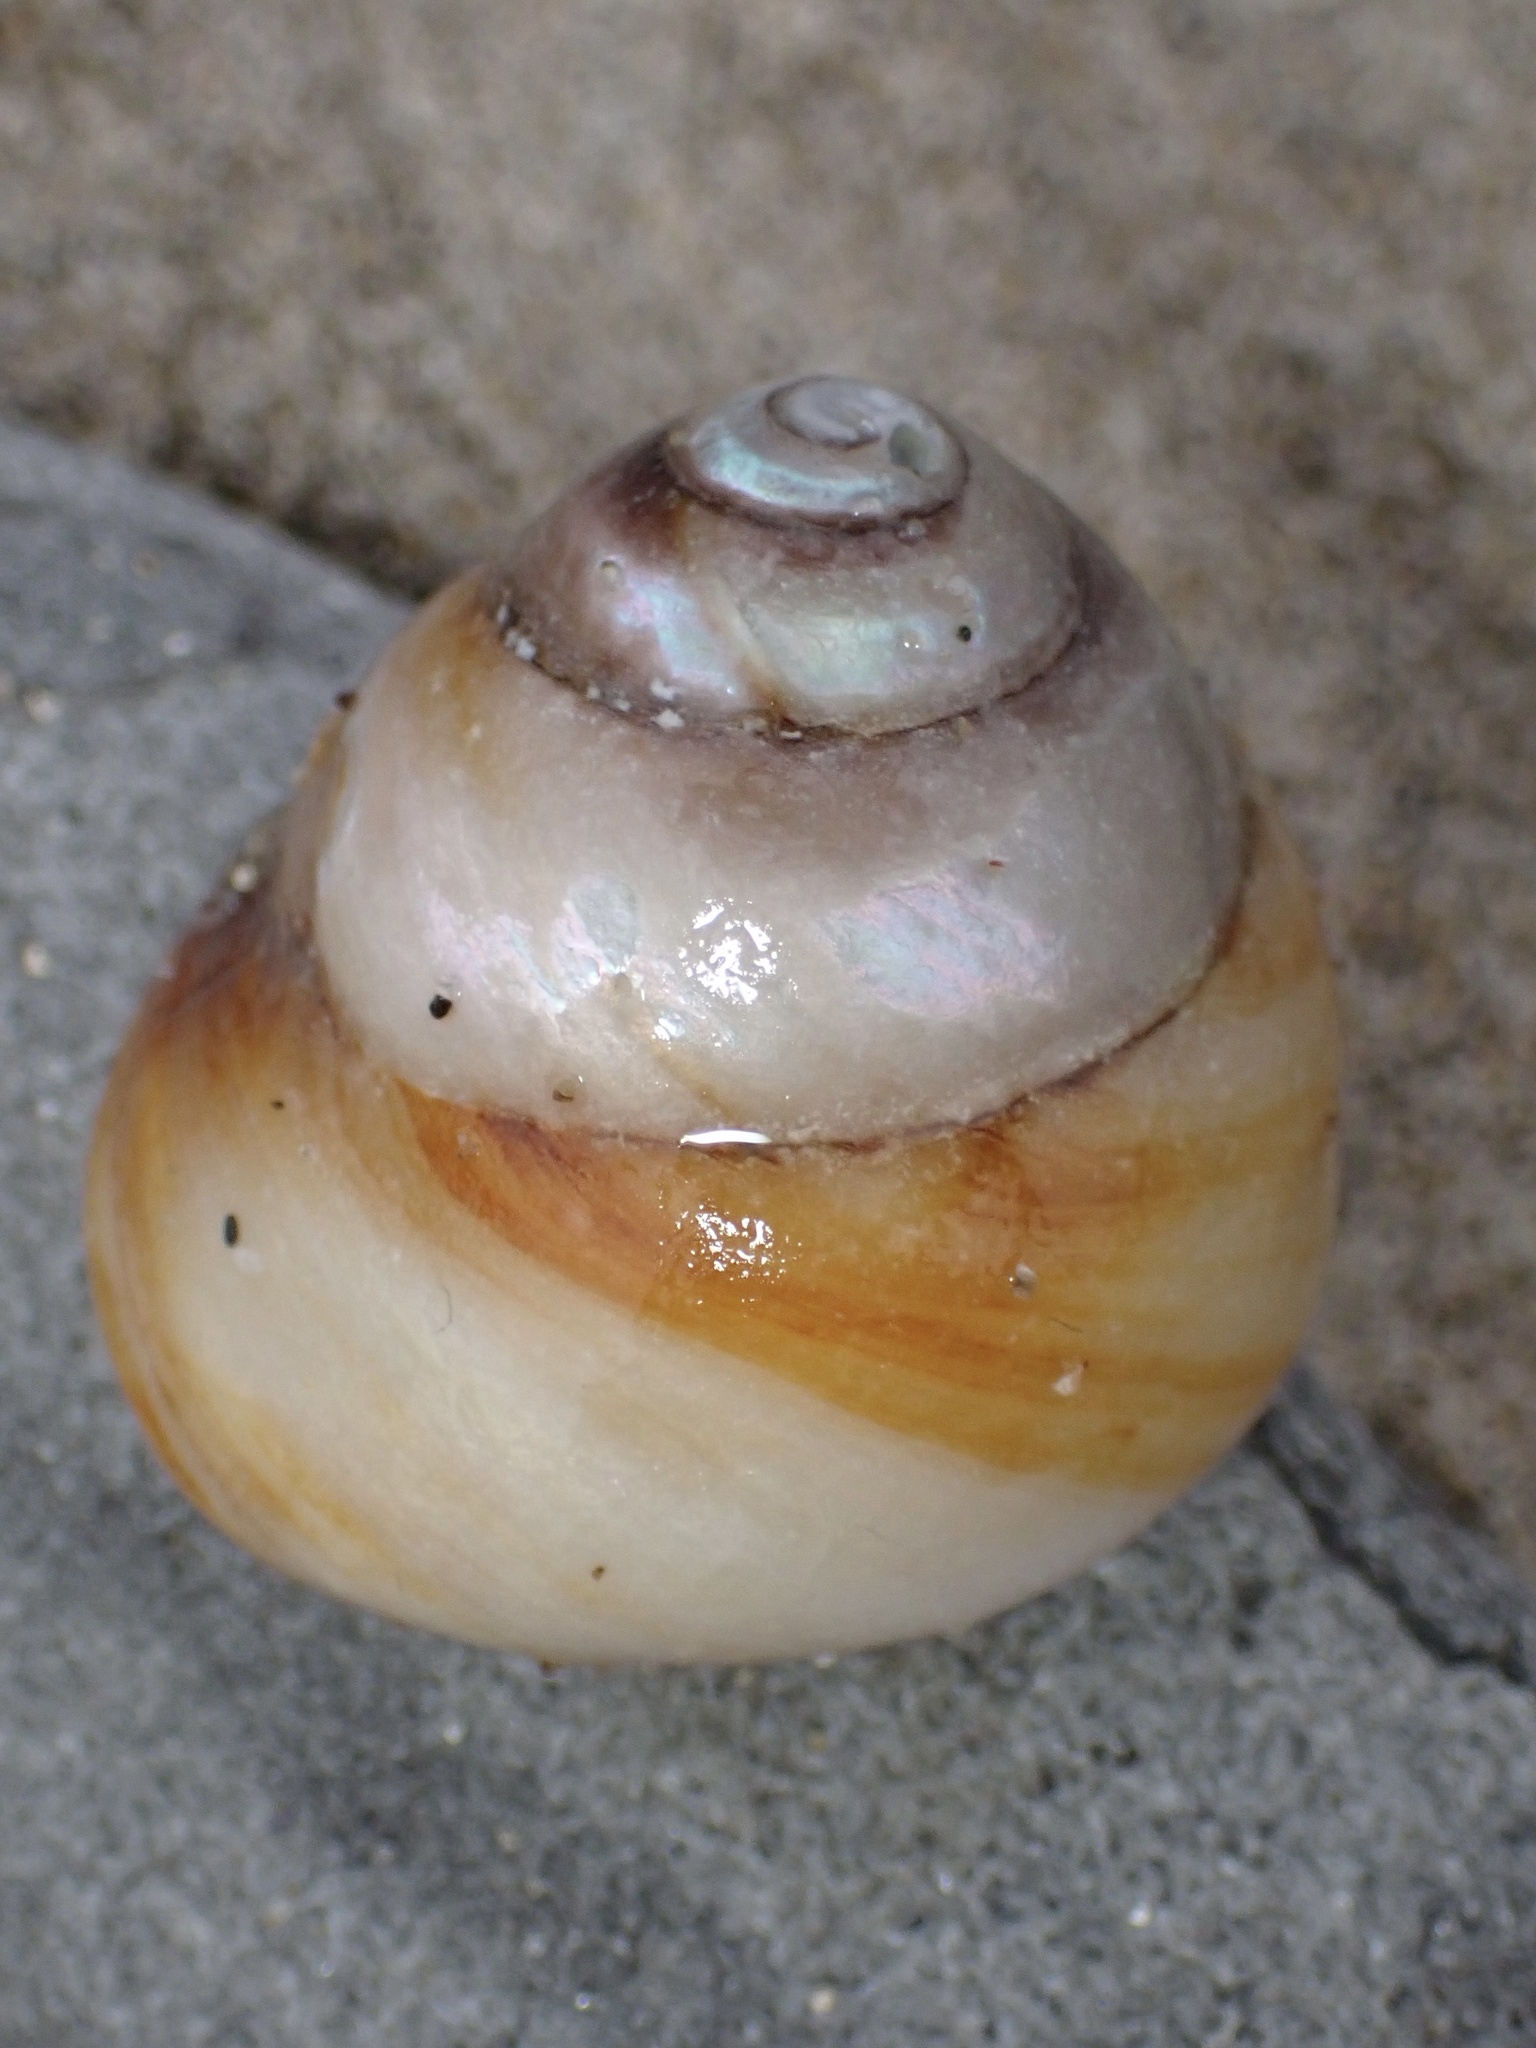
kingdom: Animalia
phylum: Mollusca
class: Gastropoda
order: Trochida
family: Tegulidae
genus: Tegula
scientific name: Tegula brunnea
